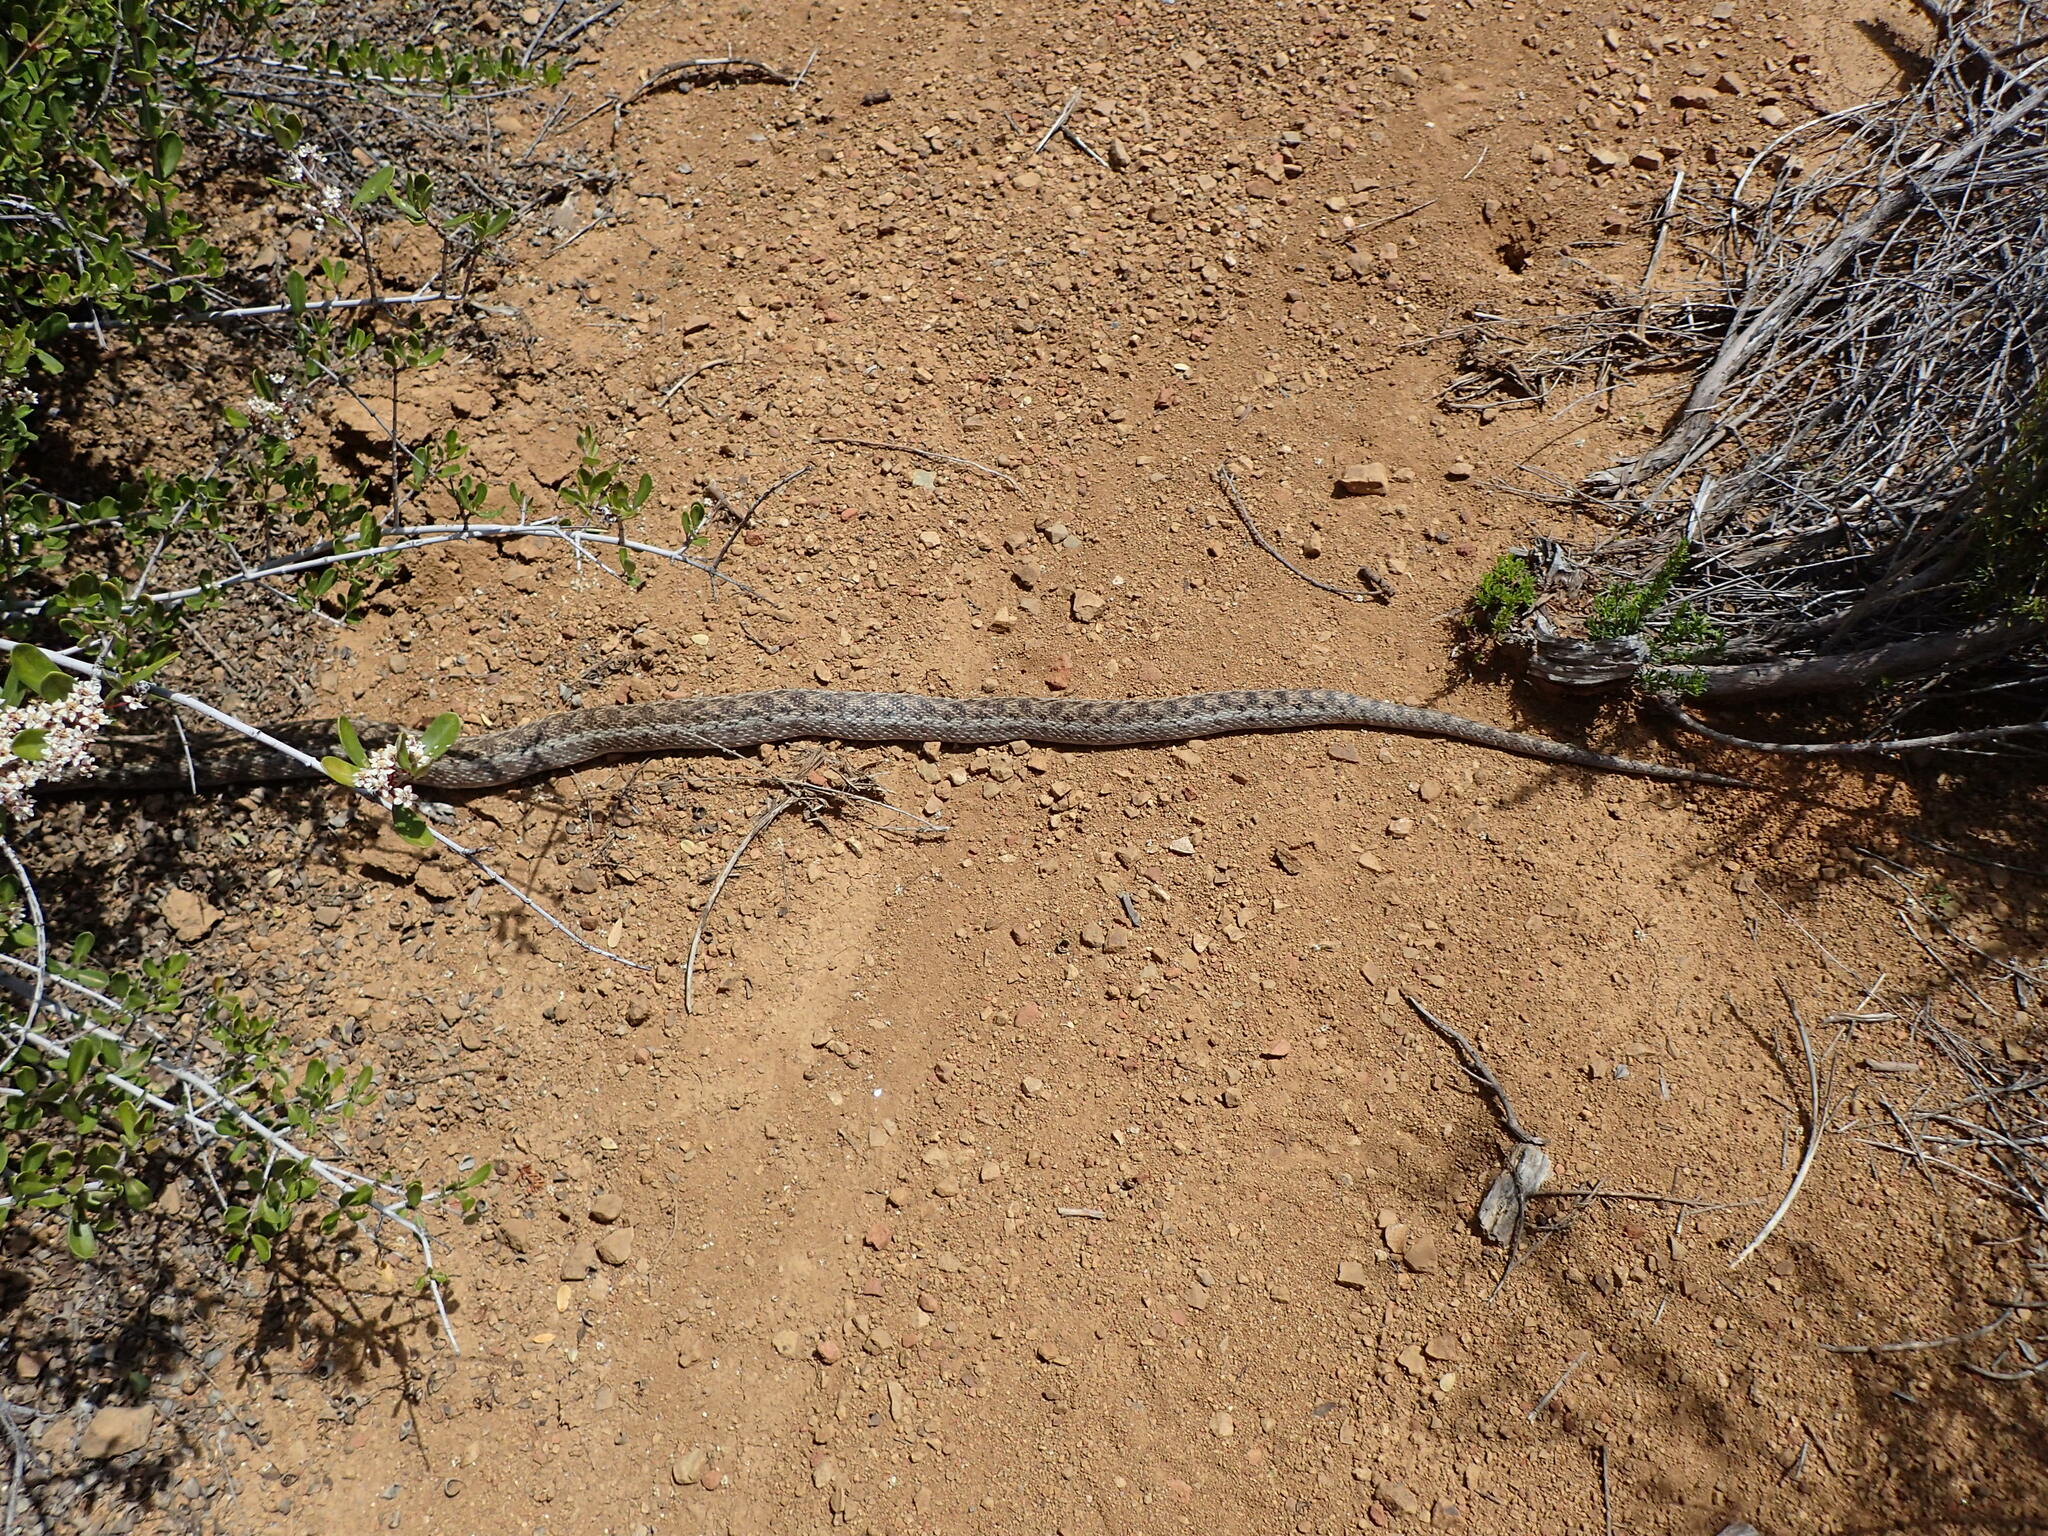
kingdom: Animalia
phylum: Chordata
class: Squamata
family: Colubridae
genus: Pituophis
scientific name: Pituophis catenifer
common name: Gopher snake
